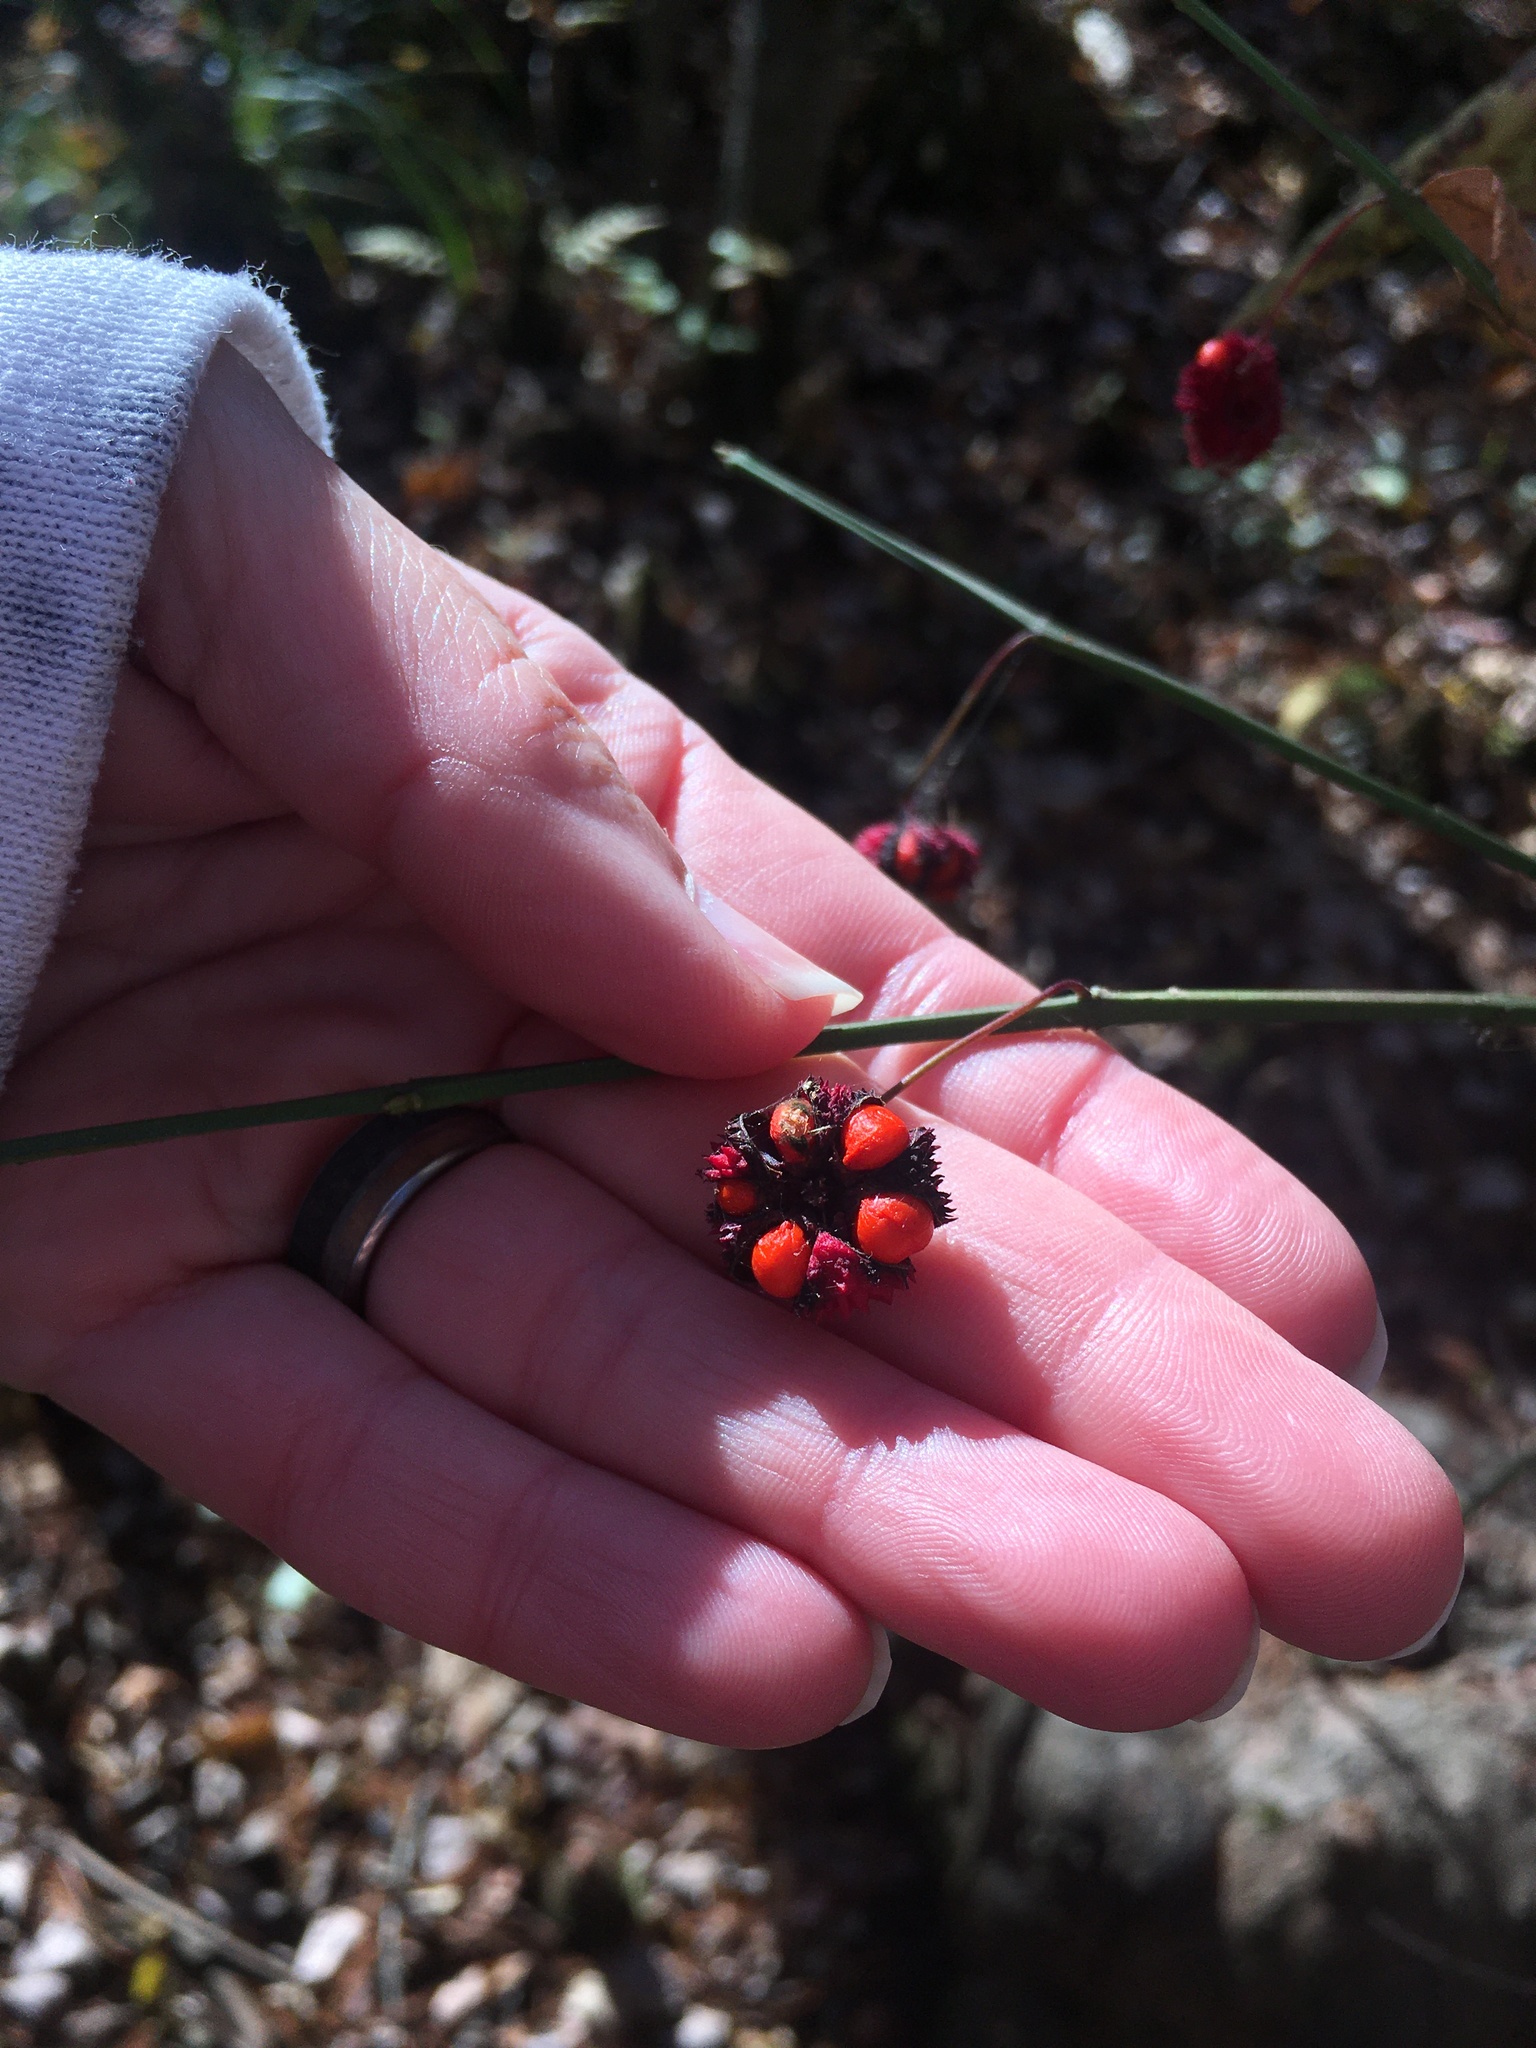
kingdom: Plantae
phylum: Tracheophyta
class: Magnoliopsida
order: Celastrales
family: Celastraceae
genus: Euonymus
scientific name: Euonymus americanus
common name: Bursting-heart
